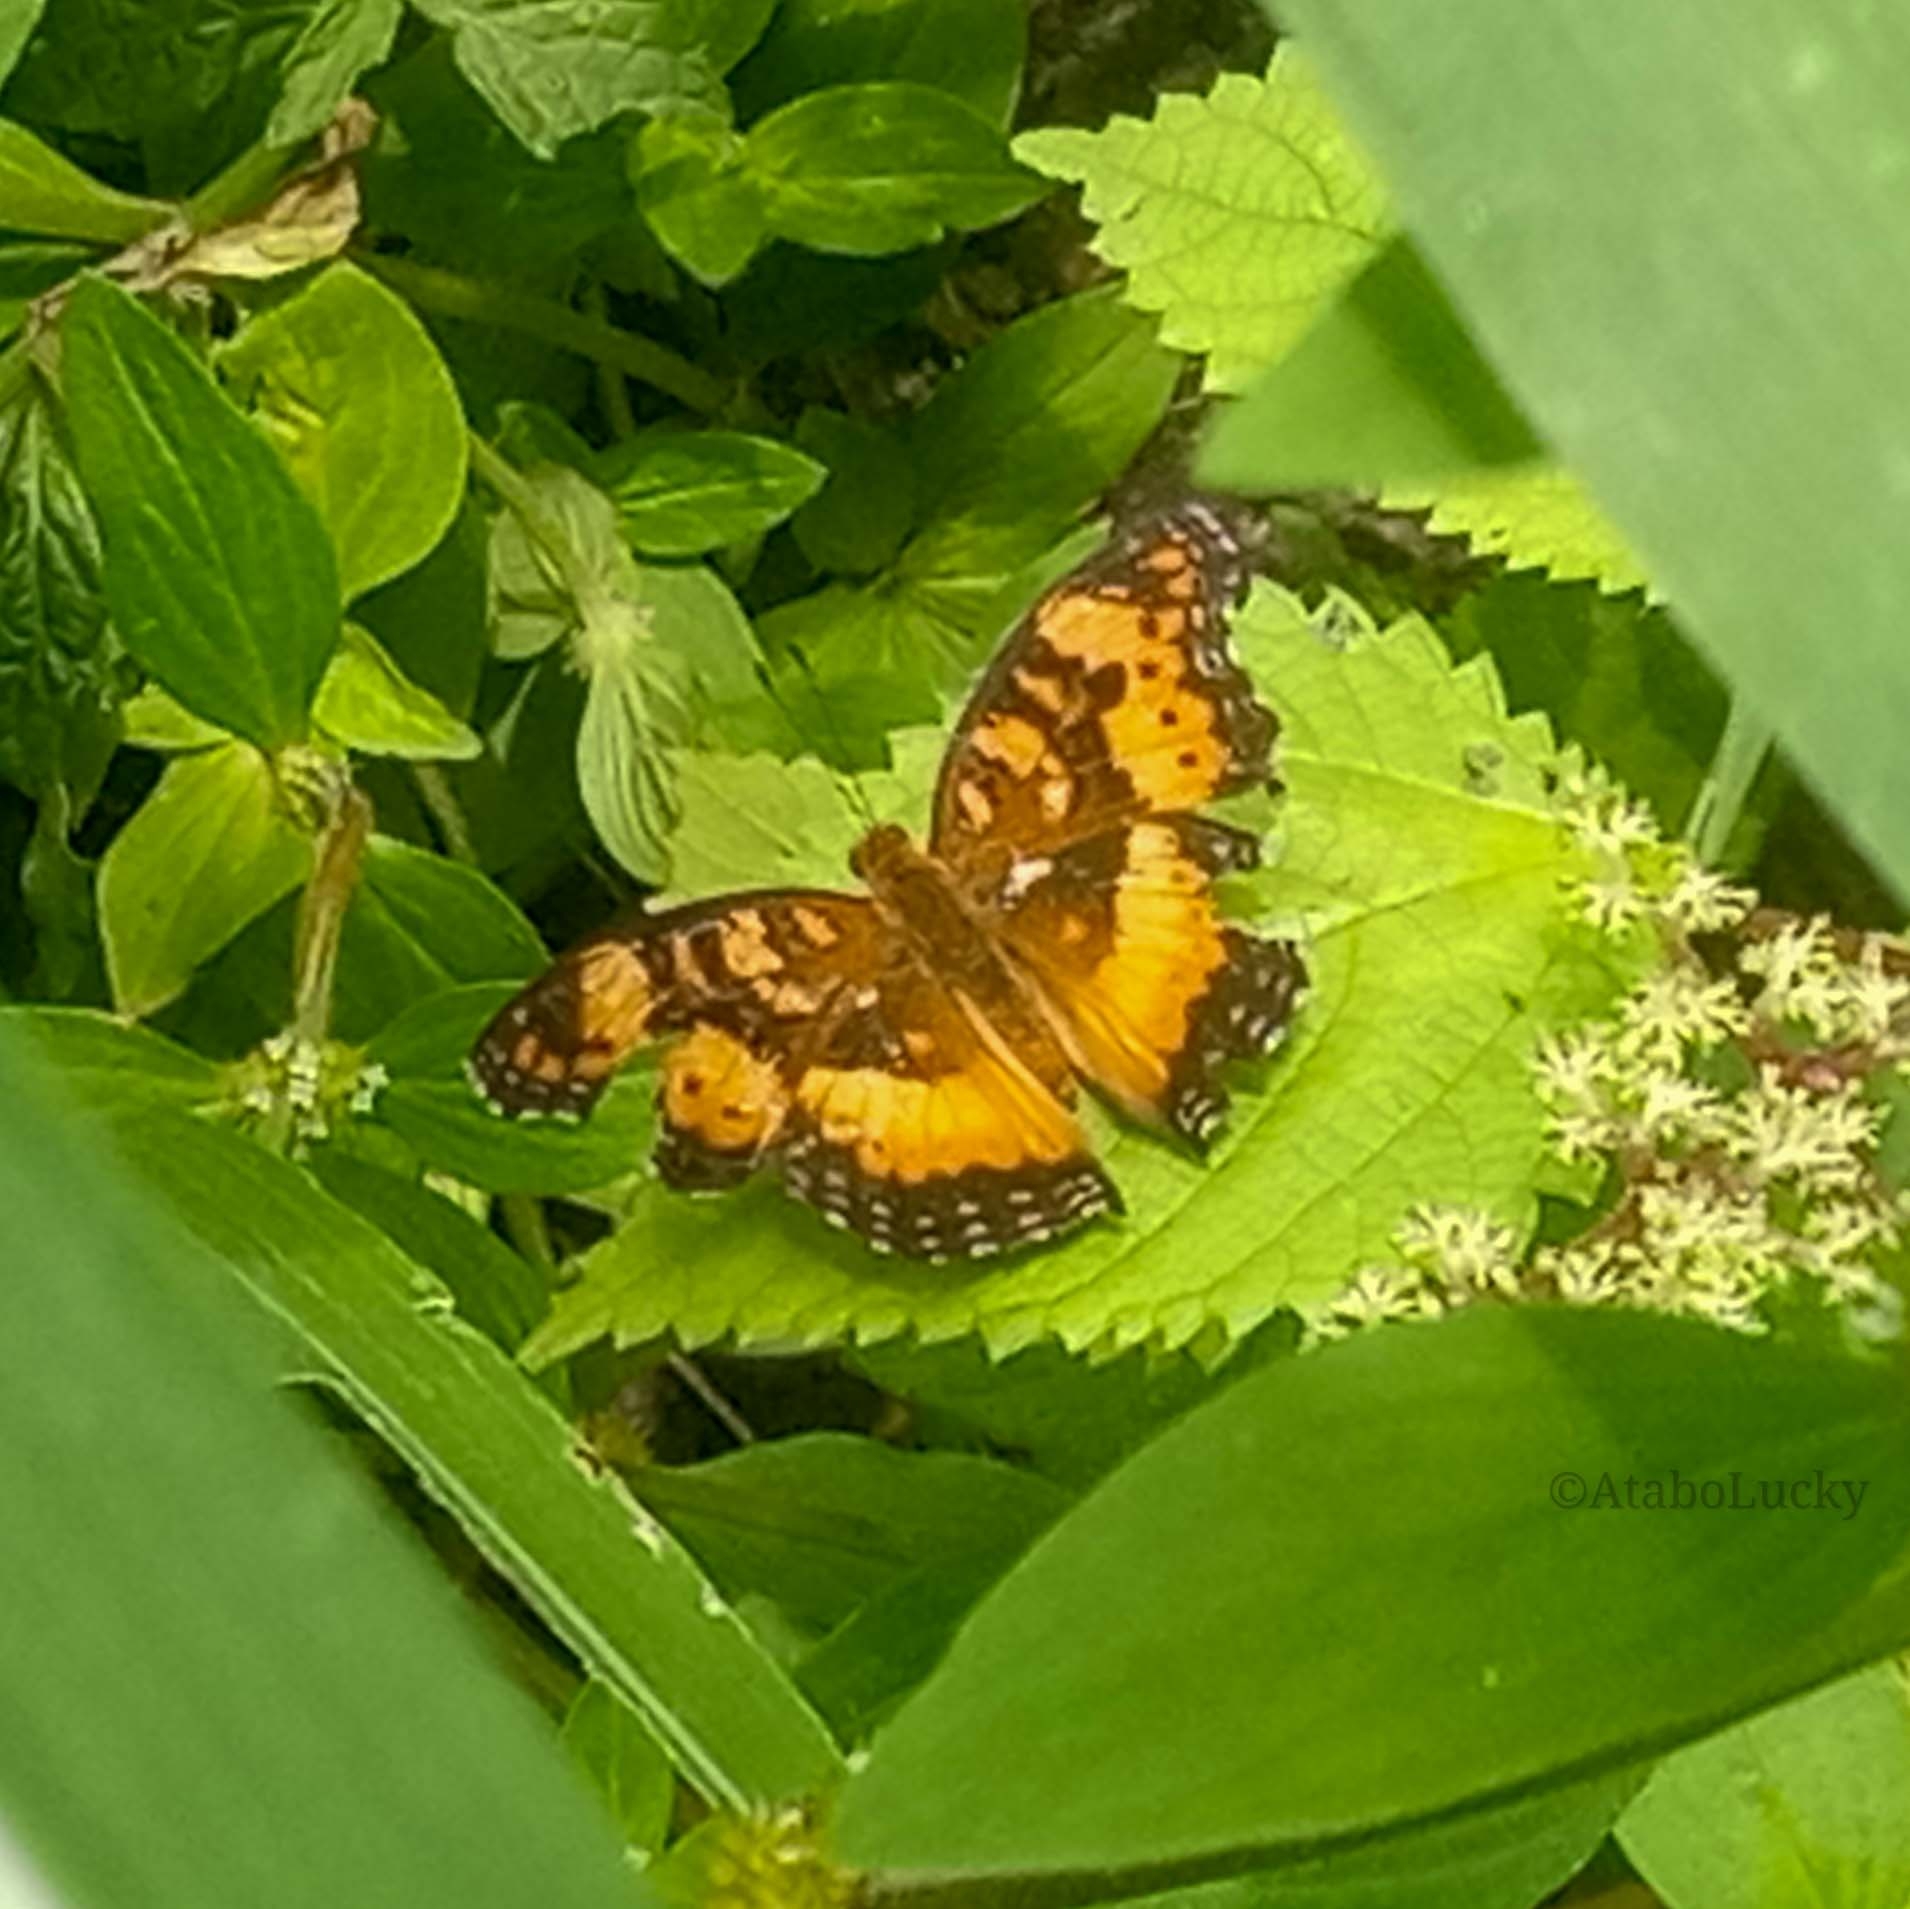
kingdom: Animalia
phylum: Arthropoda
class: Insecta
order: Lepidoptera
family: Nymphalidae
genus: Junonia
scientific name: Junonia antilope
